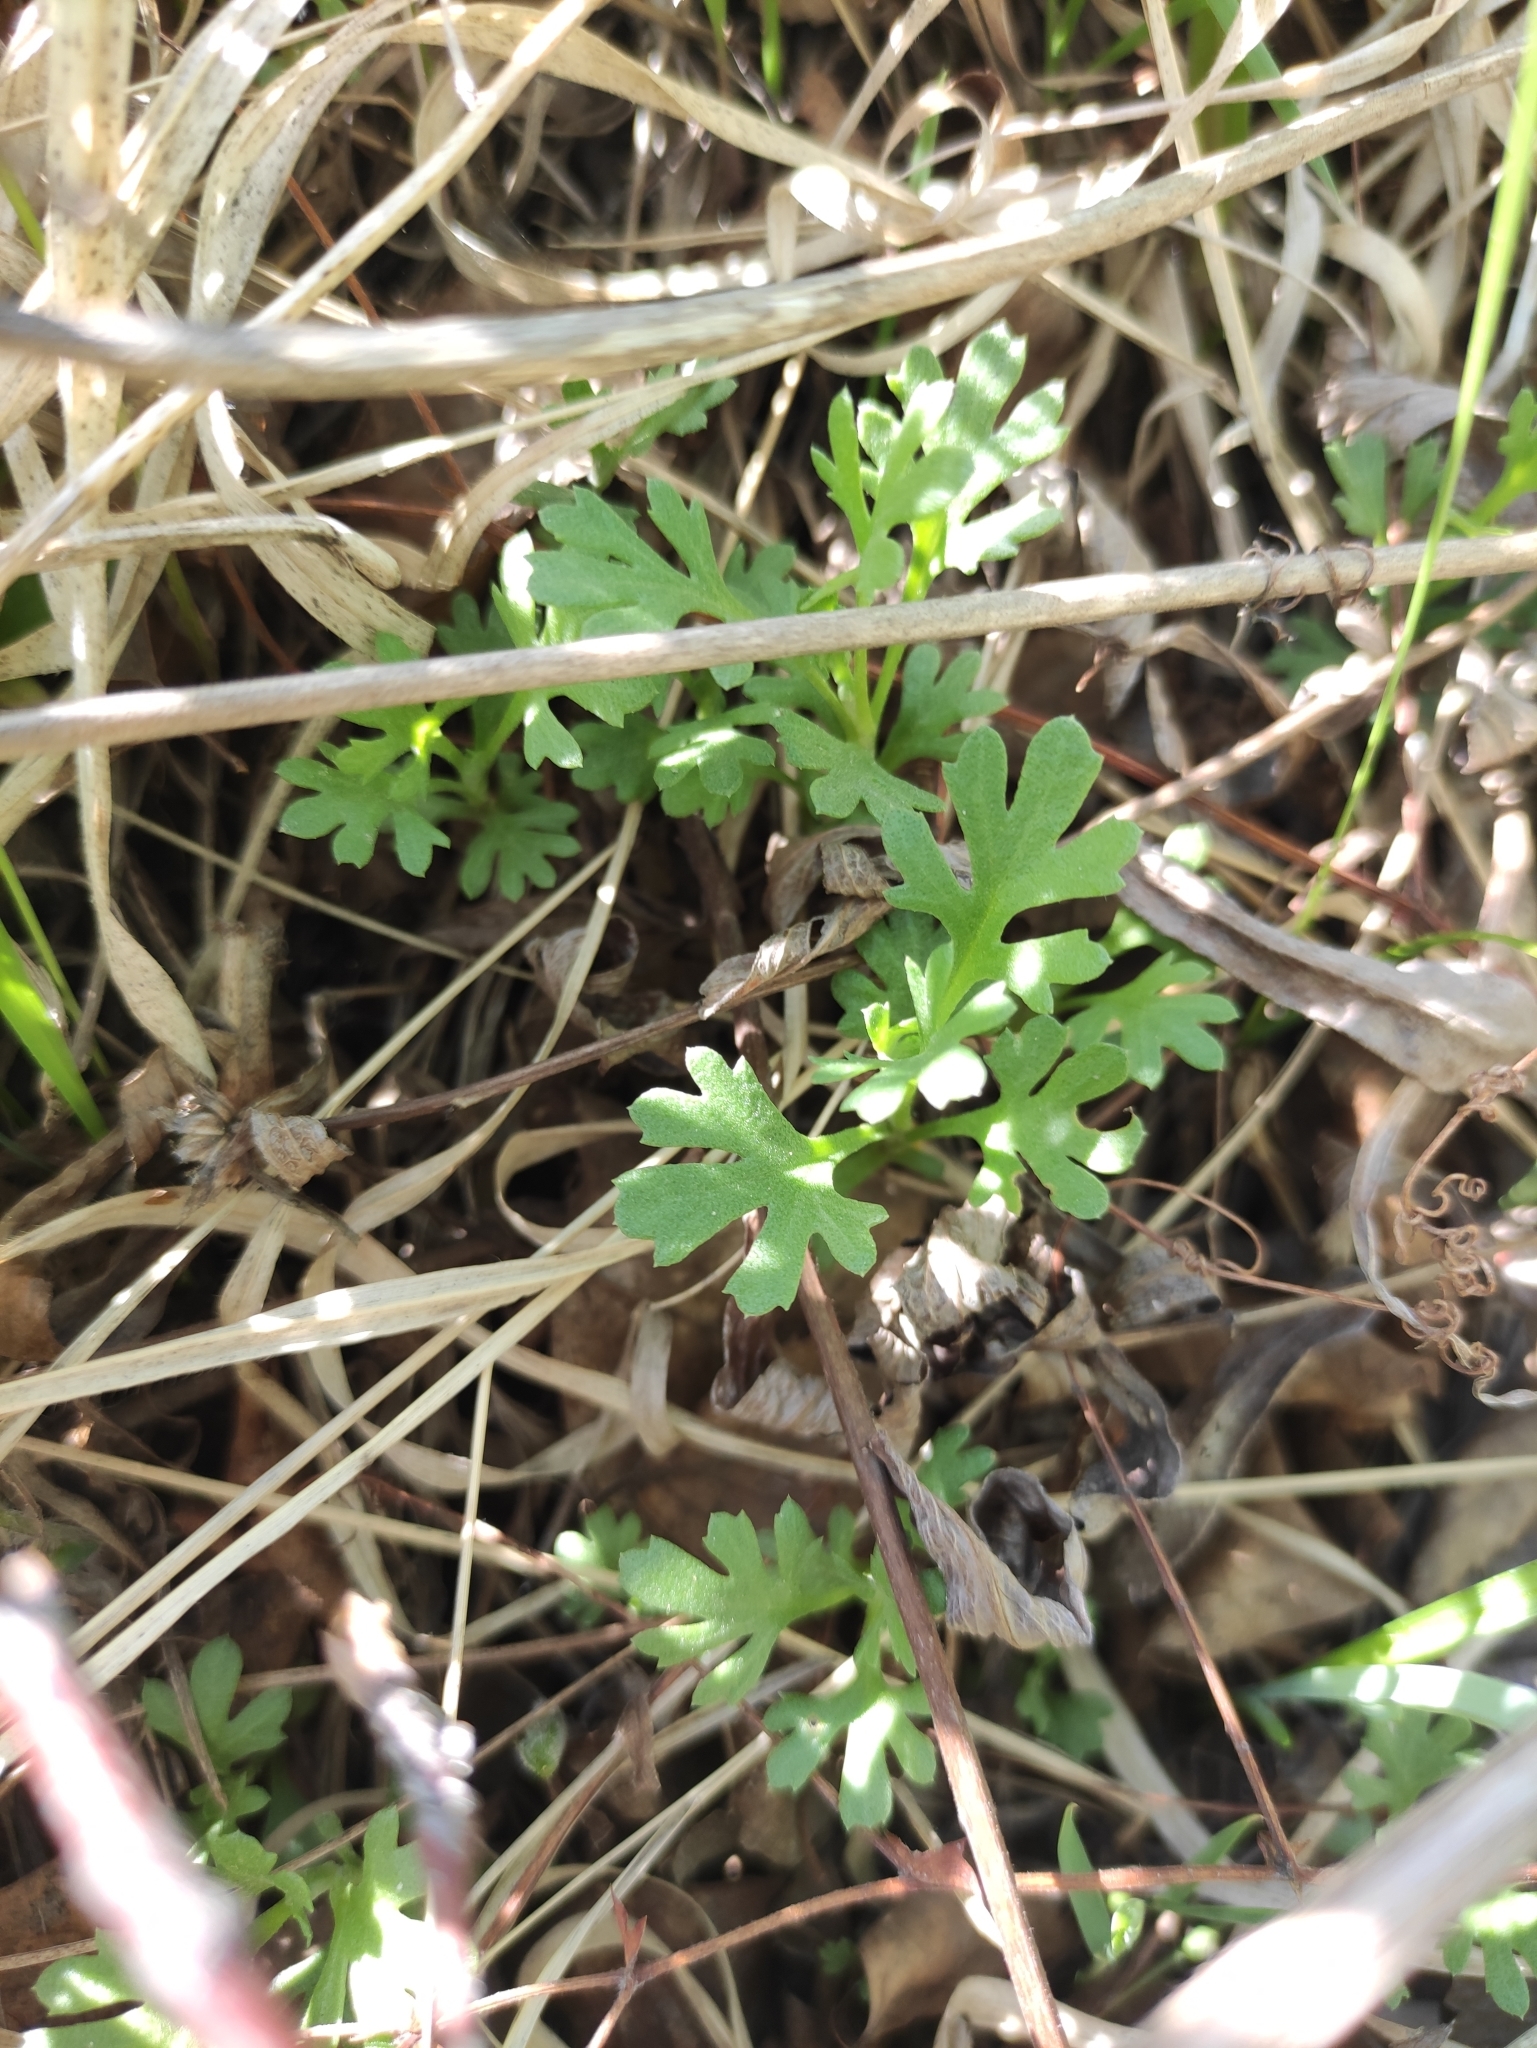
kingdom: Plantae
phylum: Tracheophyta
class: Magnoliopsida
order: Asterales
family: Asteraceae
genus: Chrysanthemum
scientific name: Chrysanthemum zawadzkii
